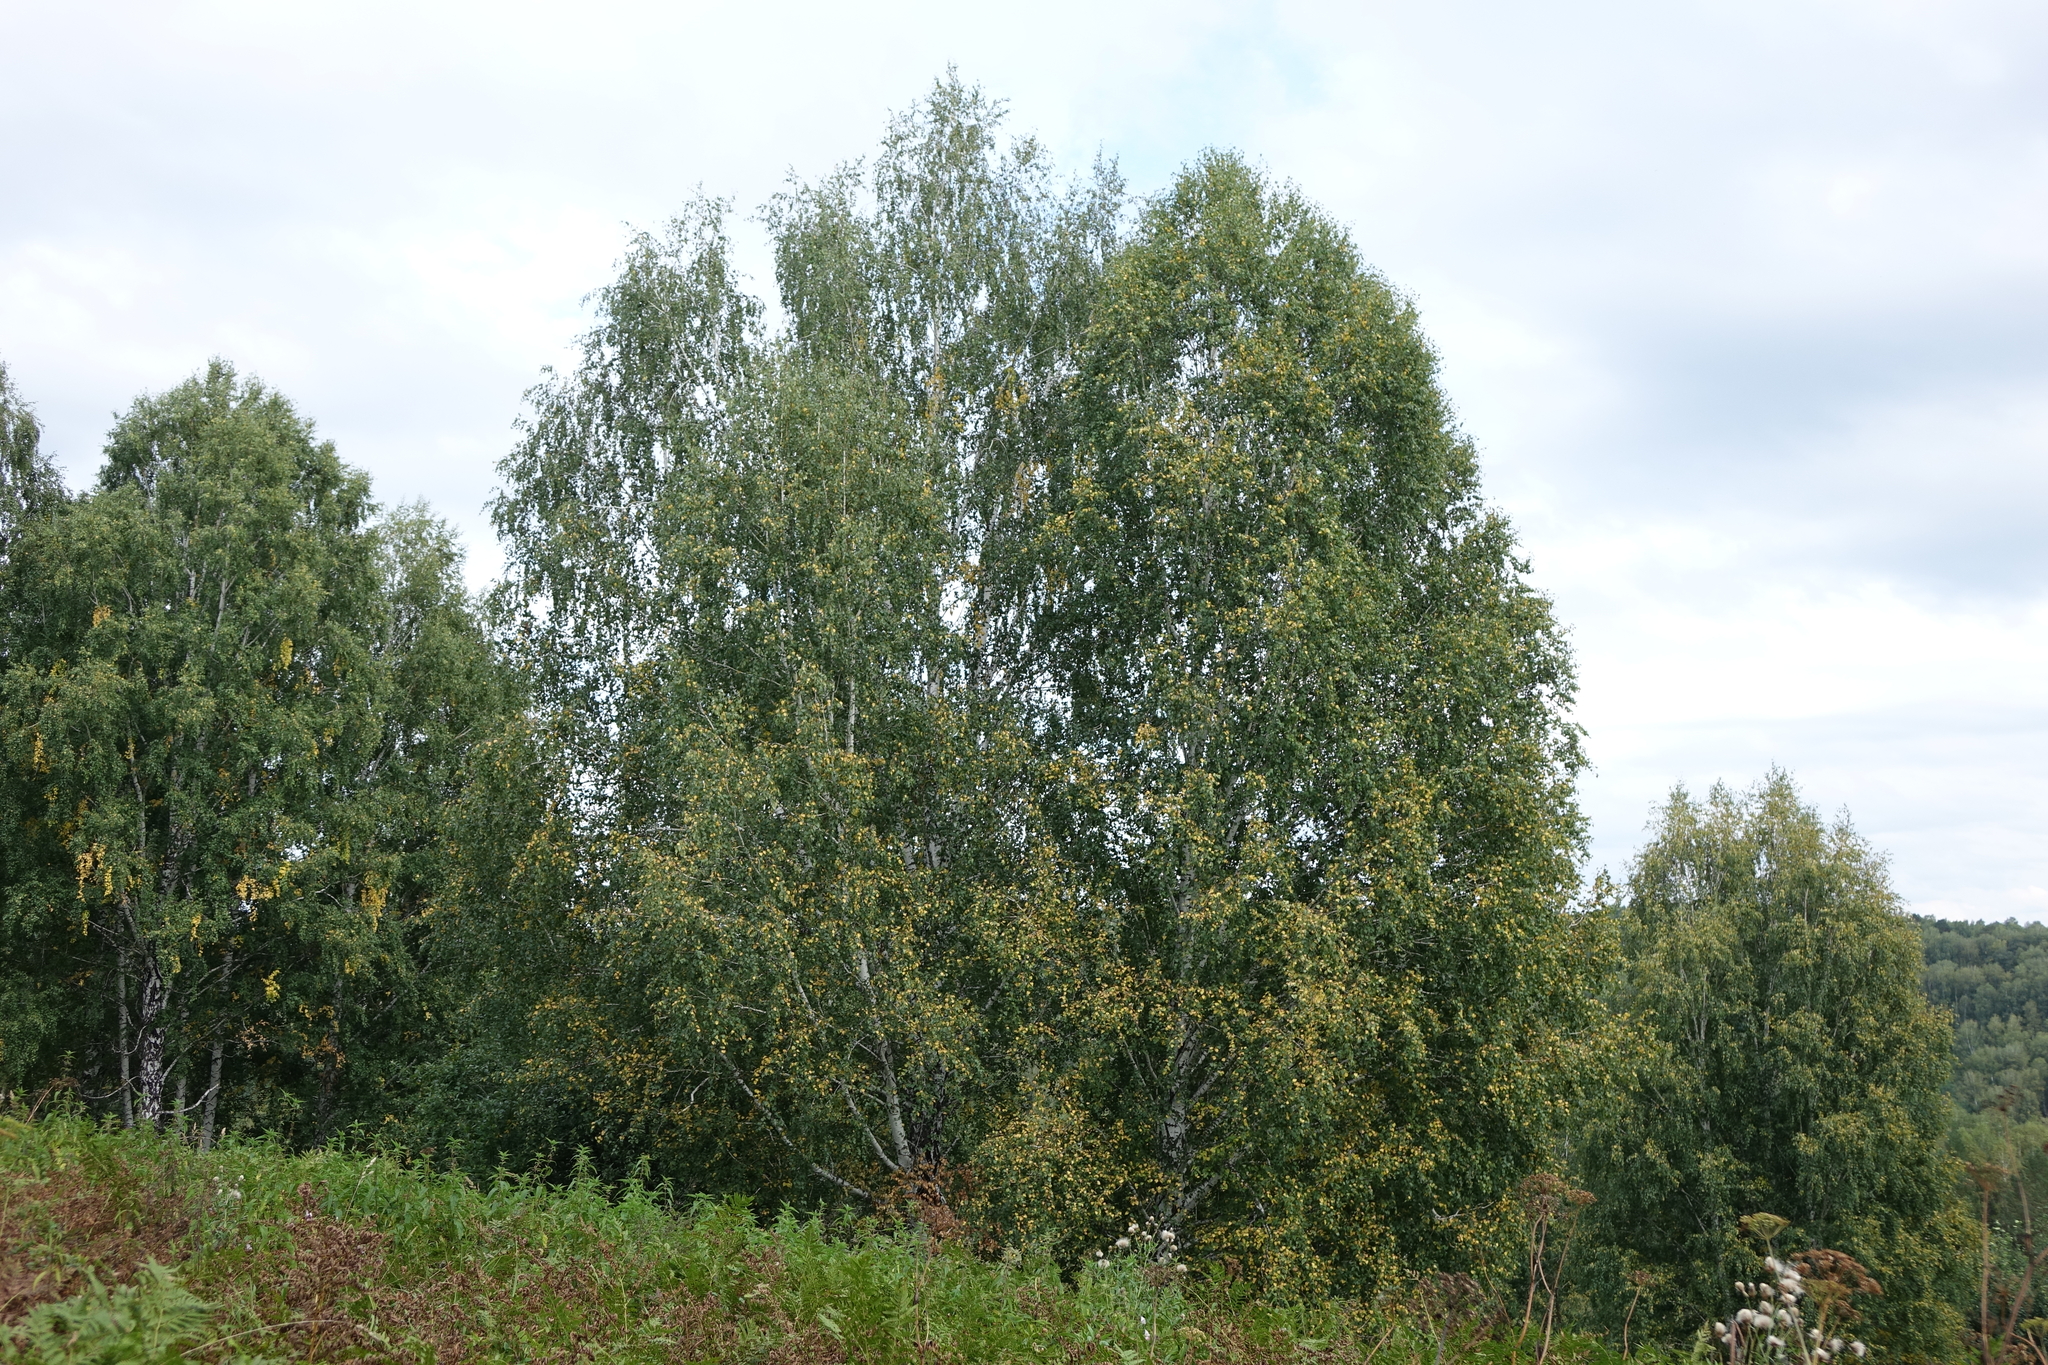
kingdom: Plantae
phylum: Tracheophyta
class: Magnoliopsida
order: Fagales
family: Betulaceae
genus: Betula
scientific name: Betula pendula
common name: Silver birch
